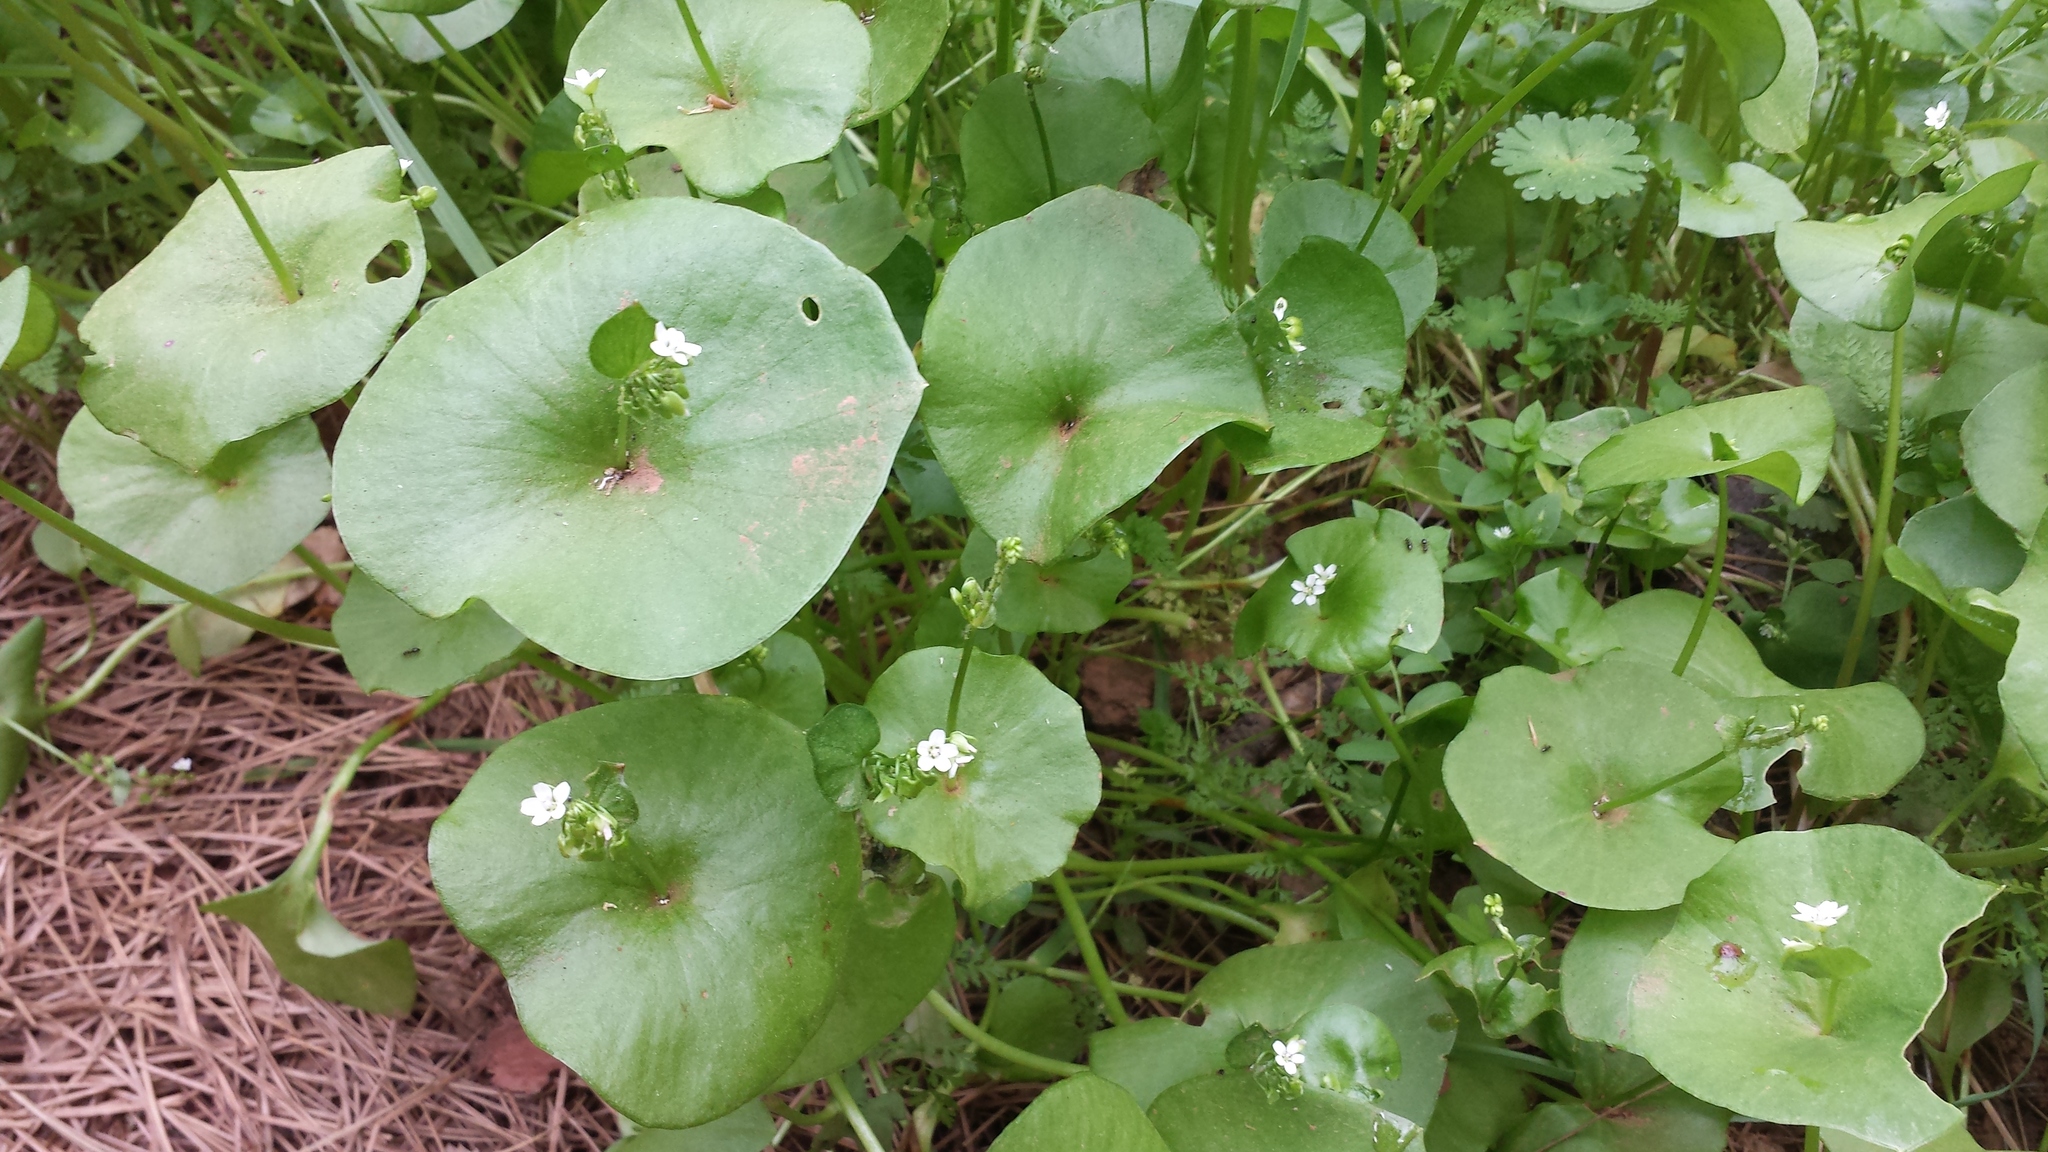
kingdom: Plantae
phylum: Tracheophyta
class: Magnoliopsida
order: Caryophyllales
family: Montiaceae
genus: Claytonia
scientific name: Claytonia perfoliata
